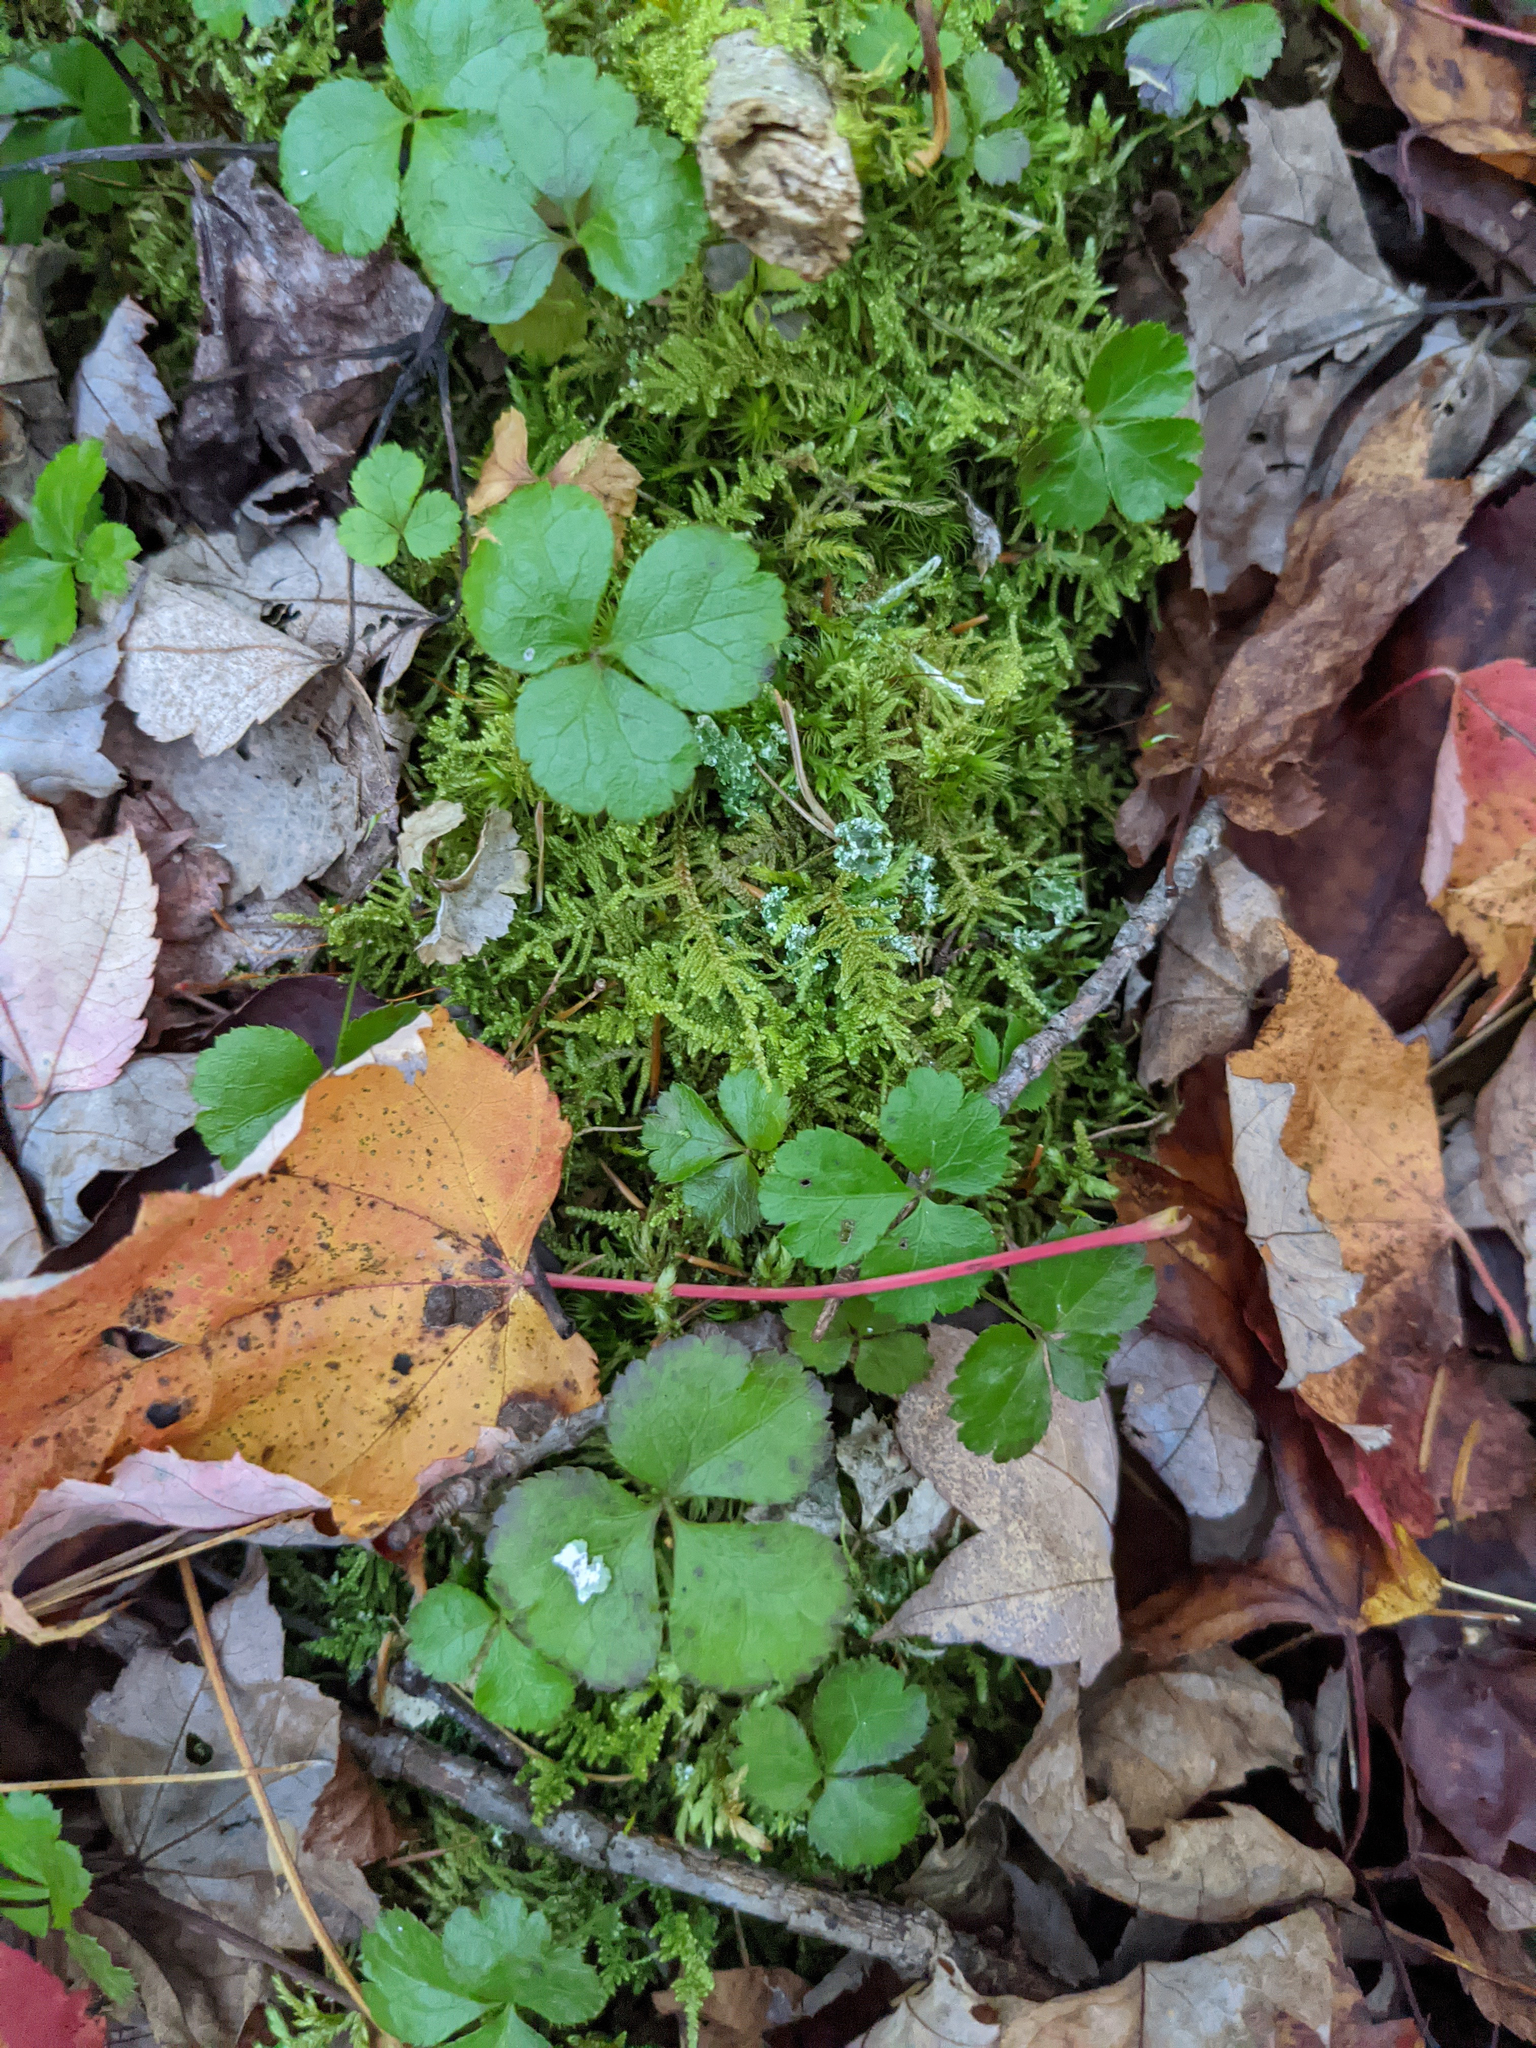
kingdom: Plantae
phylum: Tracheophyta
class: Magnoliopsida
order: Ranunculales
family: Ranunculaceae
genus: Coptis
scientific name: Coptis trifolia
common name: Canker-root
